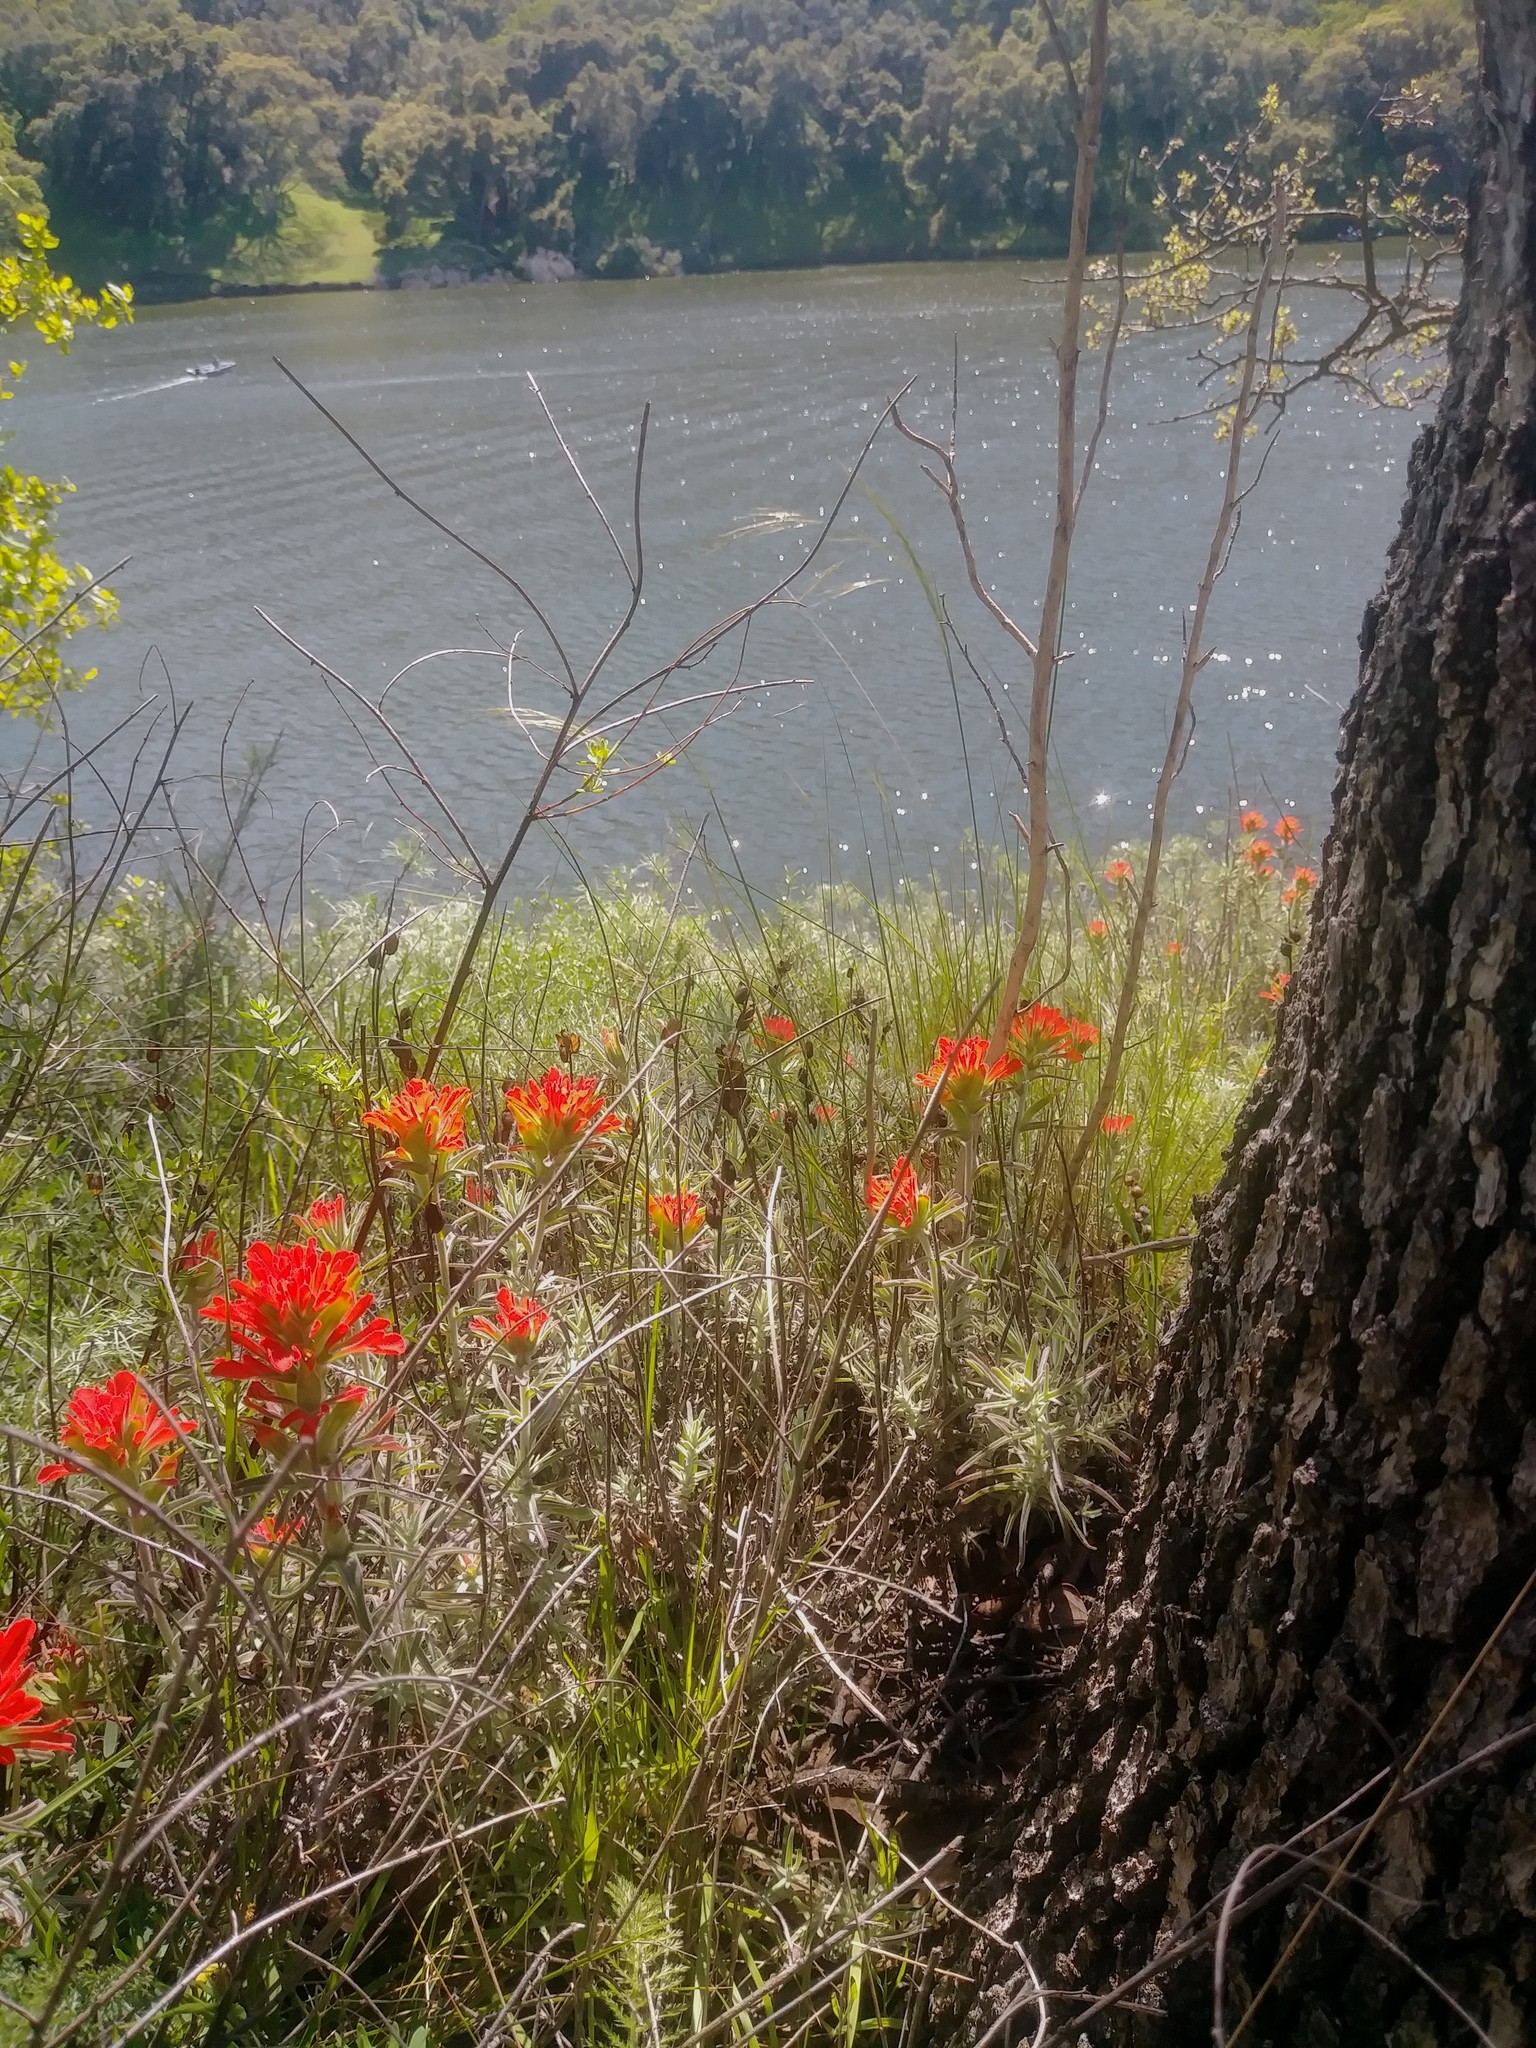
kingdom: Plantae
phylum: Tracheophyta
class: Magnoliopsida
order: Lamiales
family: Orobanchaceae
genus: Castilleja
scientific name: Castilleja foliolosa
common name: Woolly indian paintbrush
